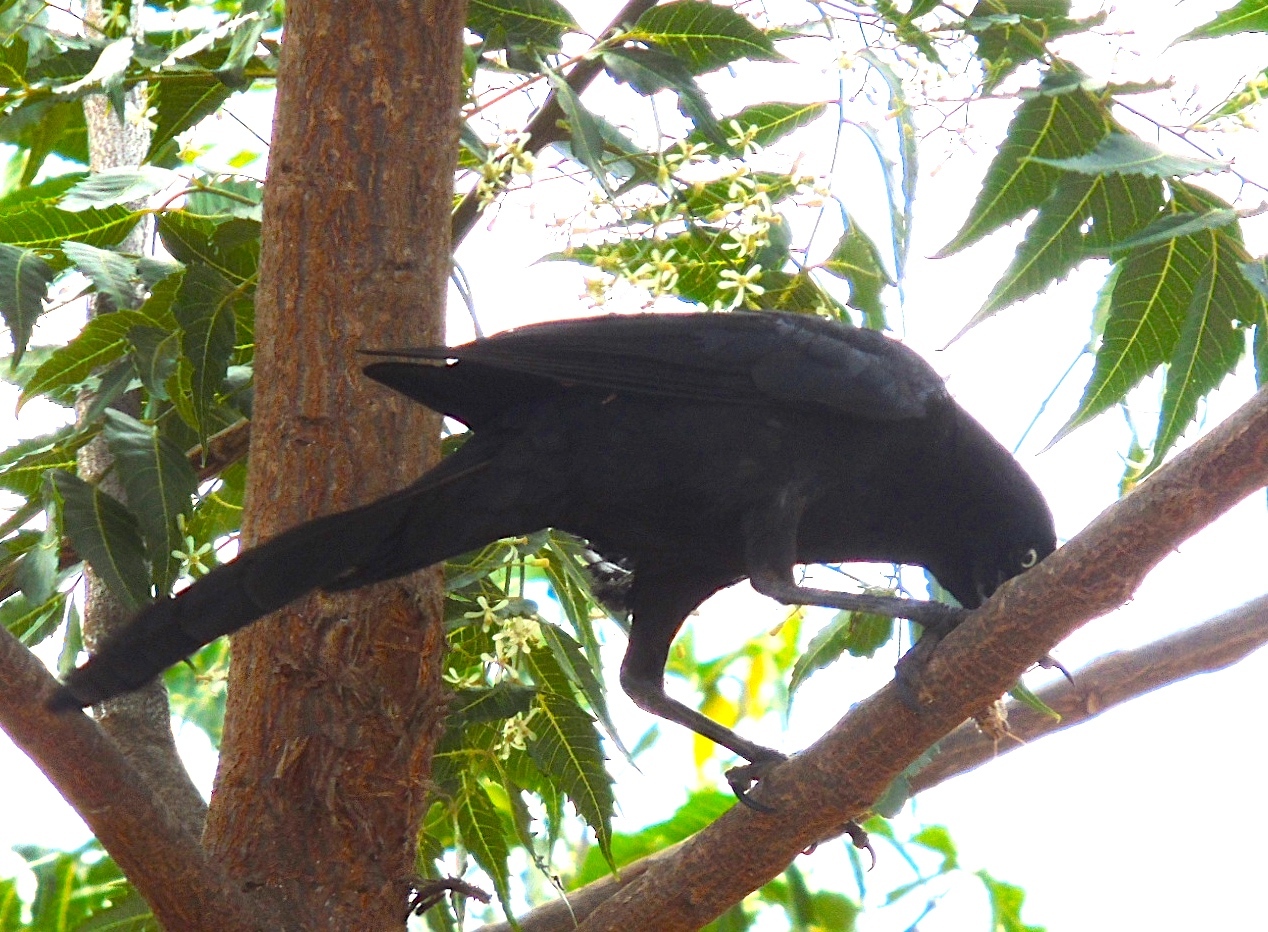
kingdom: Animalia
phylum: Chordata
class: Aves
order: Passeriformes
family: Icteridae
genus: Quiscalus
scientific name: Quiscalus mexicanus
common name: Great-tailed grackle
